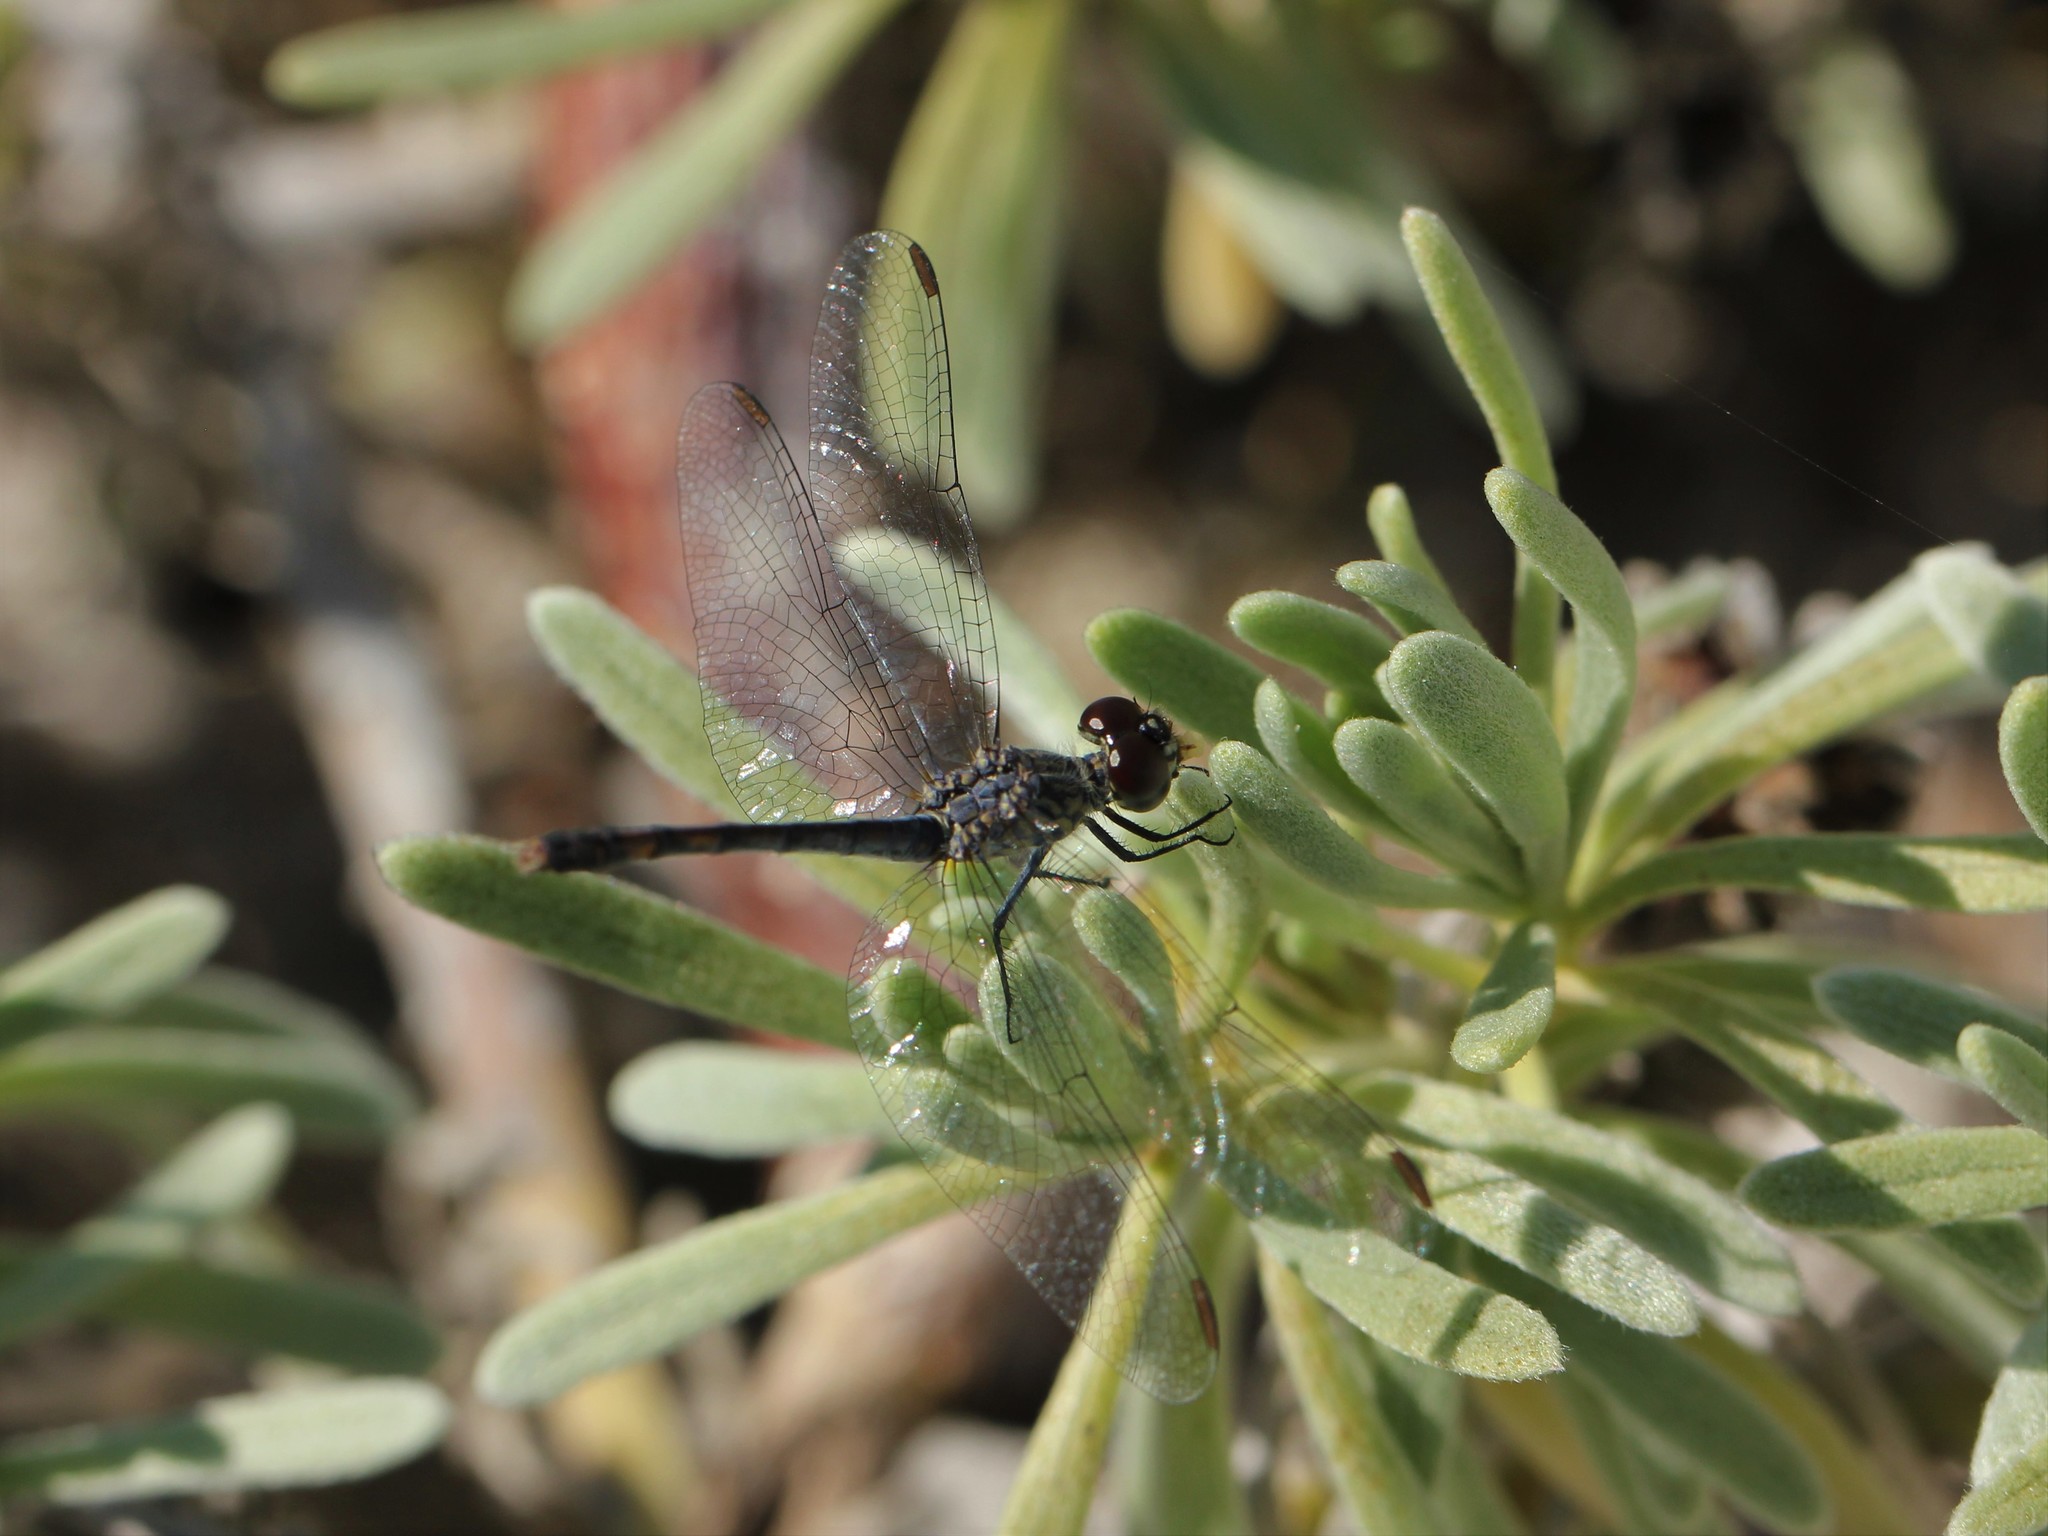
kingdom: Animalia
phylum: Arthropoda
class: Insecta
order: Odonata
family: Libellulidae
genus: Erythrodiplax
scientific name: Erythrodiplax berenice
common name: Seaside dragonlet
